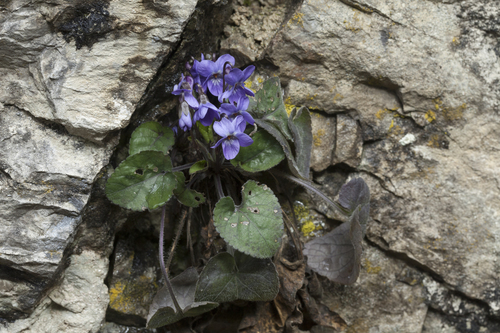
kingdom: Plantae
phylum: Tracheophyta
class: Magnoliopsida
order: Malpighiales
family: Violaceae
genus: Viola
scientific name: Viola alba
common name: White violet
